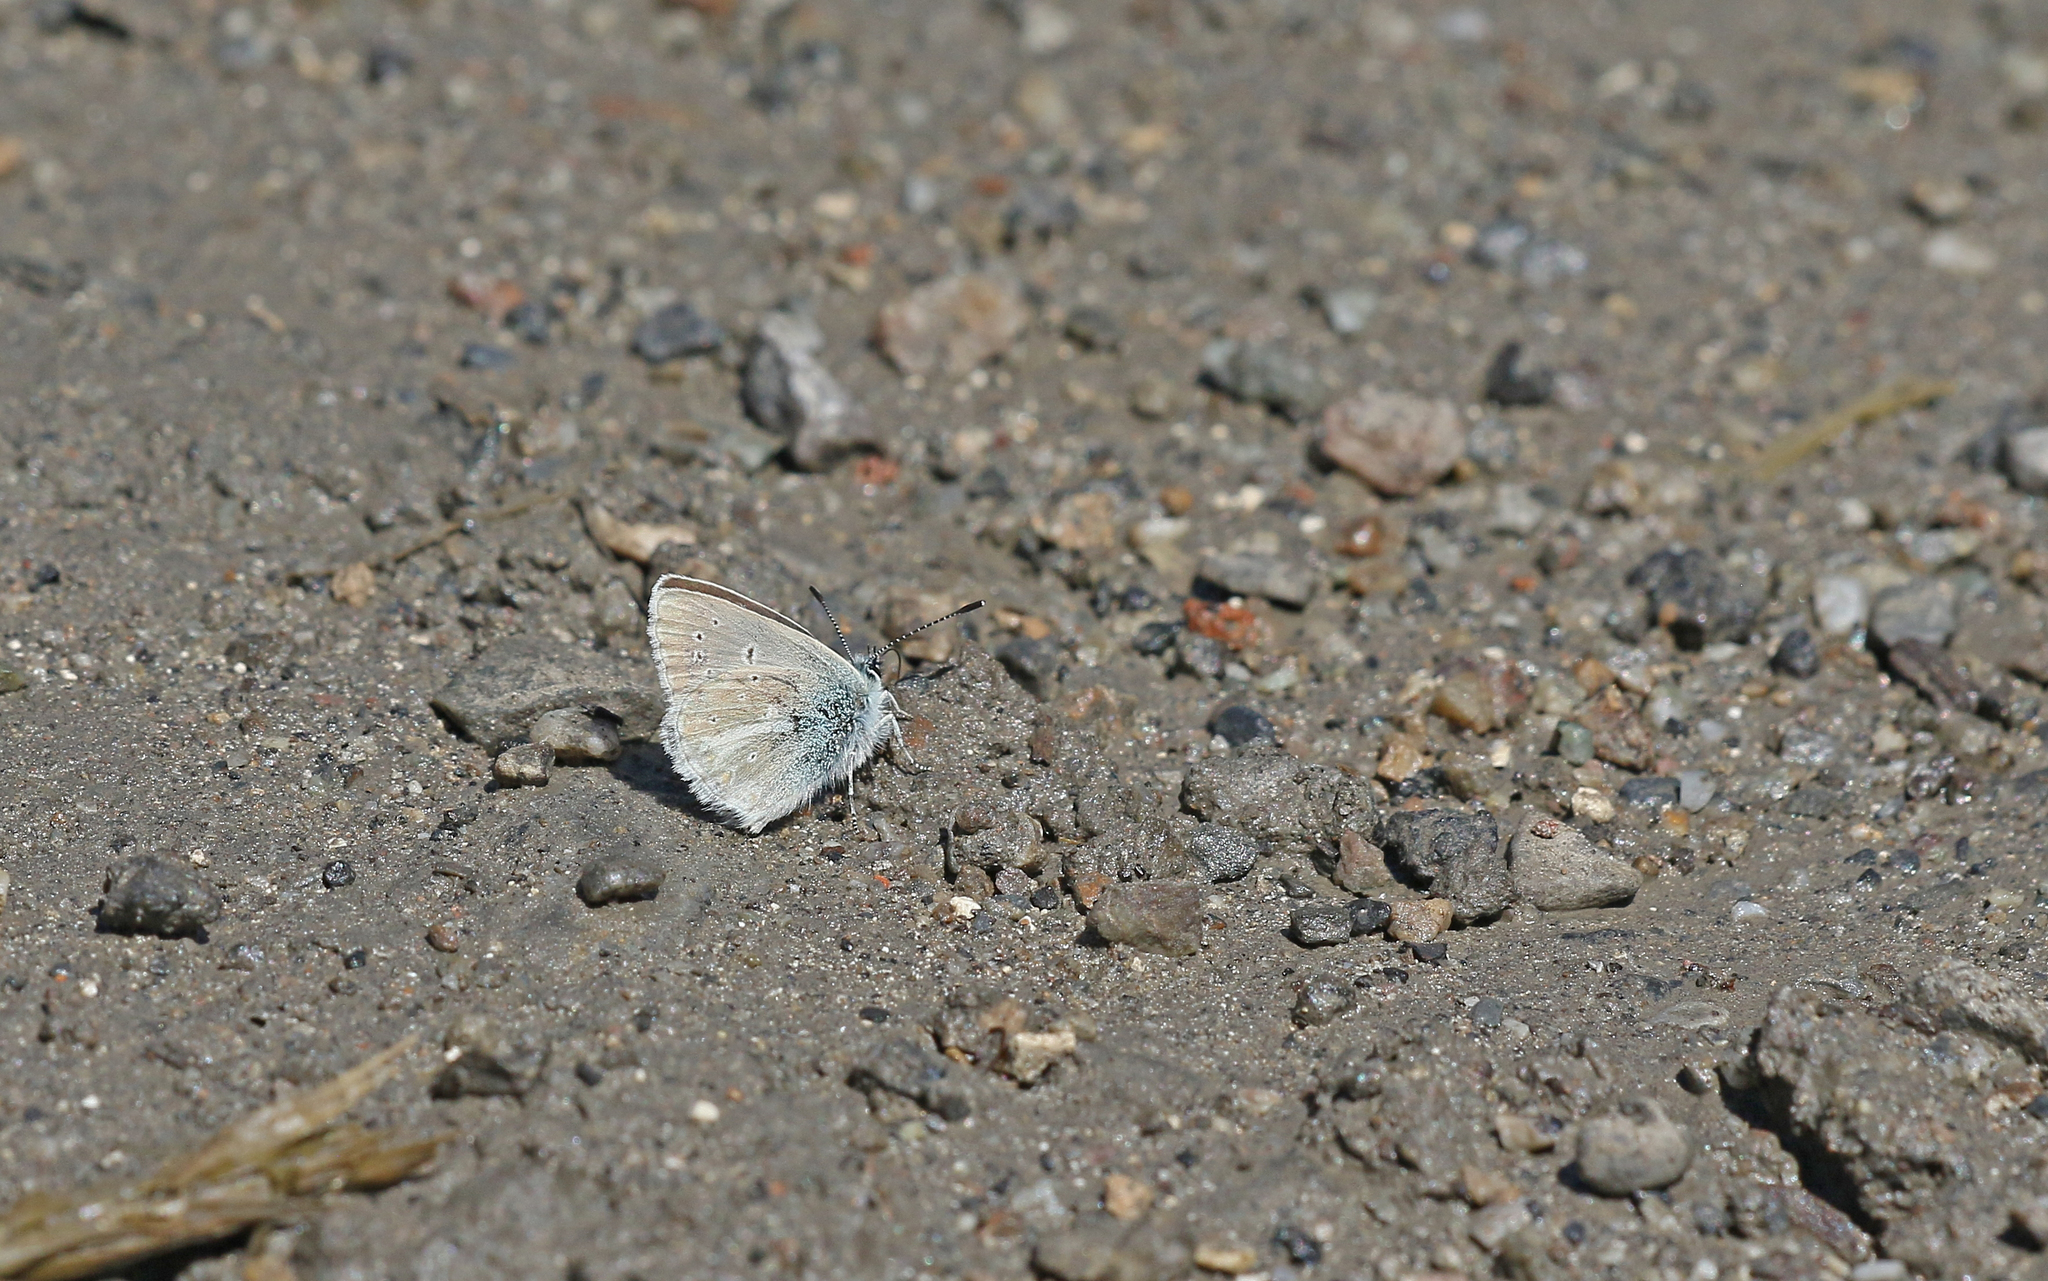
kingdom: Animalia
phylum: Arthropoda
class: Insecta
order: Lepidoptera
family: Lycaenidae
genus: Pseudoaricia
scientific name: Pseudoaricia nicias
